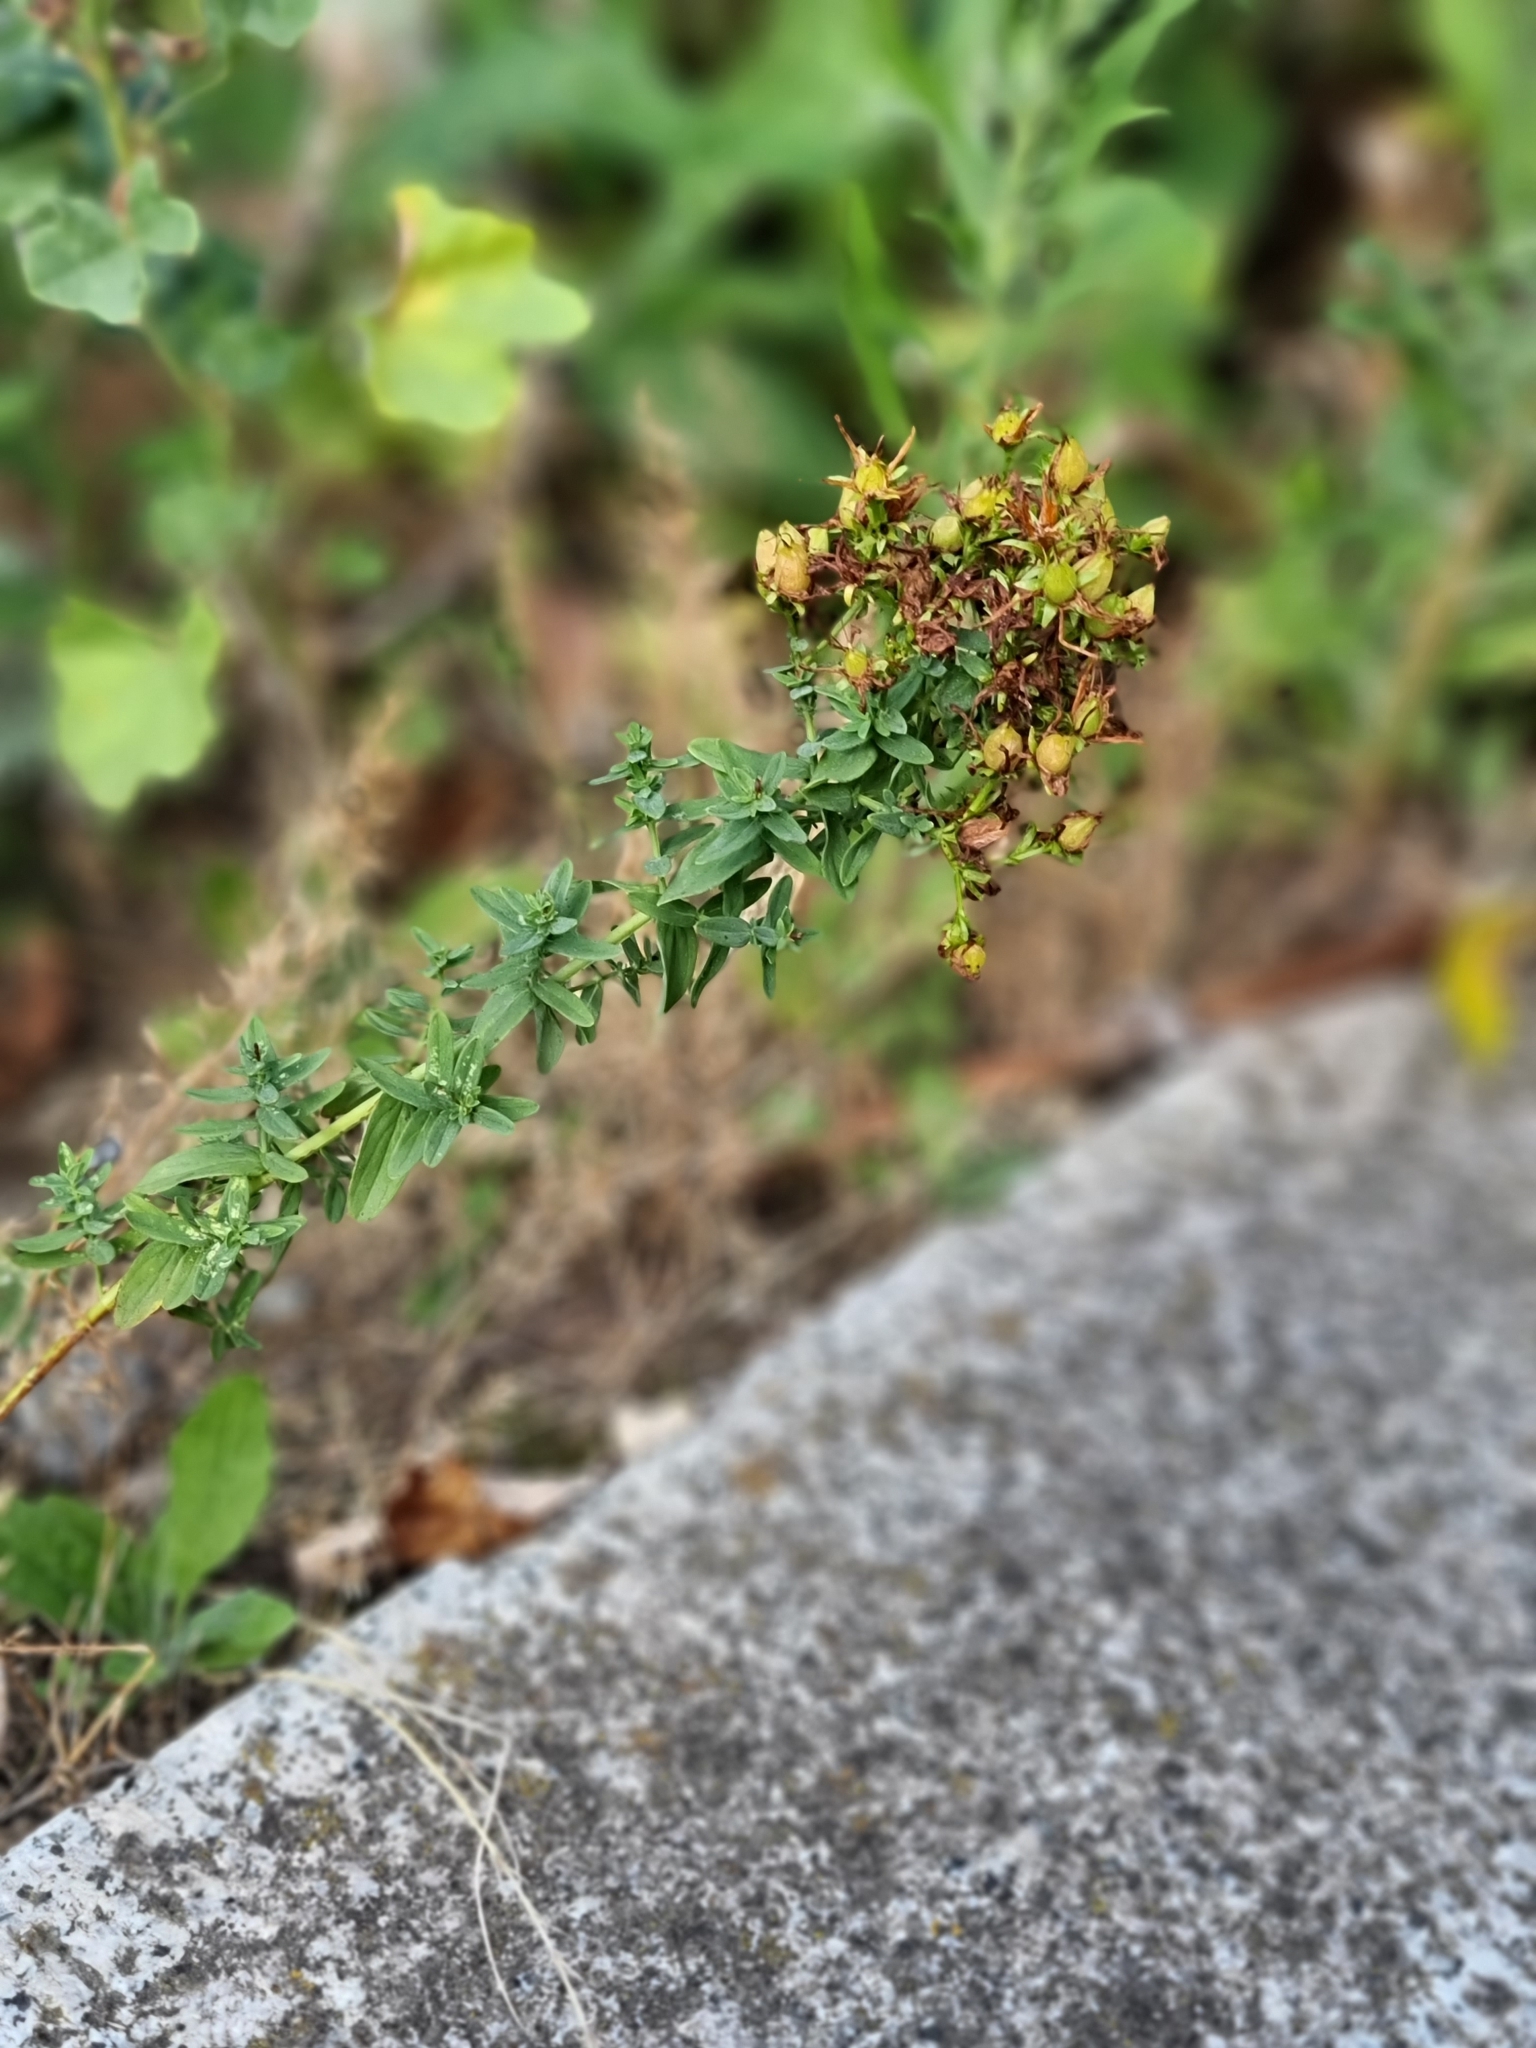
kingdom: Plantae
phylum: Tracheophyta
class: Magnoliopsida
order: Malpighiales
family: Hypericaceae
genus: Hypericum
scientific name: Hypericum perforatum
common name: Common st. johnswort
